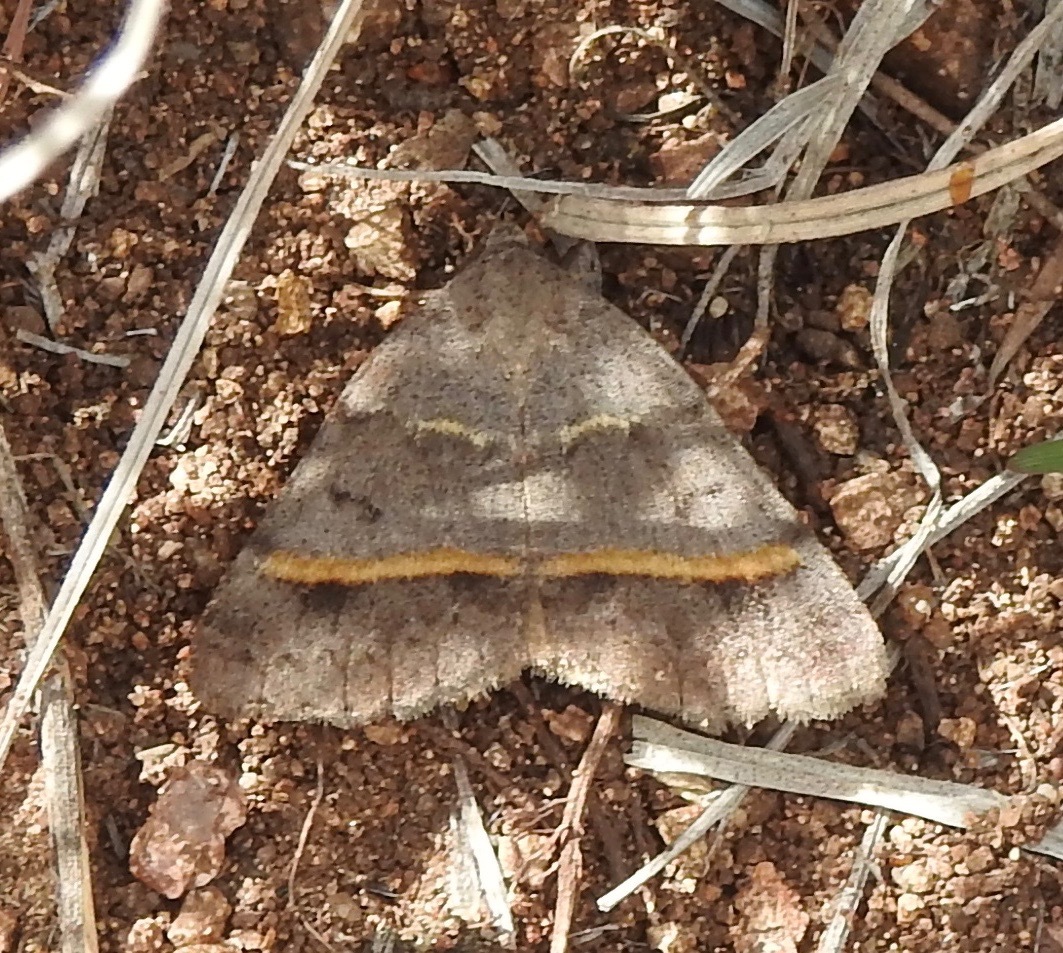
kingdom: Animalia
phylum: Arthropoda
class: Insecta
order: Lepidoptera
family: Erebidae
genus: Ptichodis
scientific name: Ptichodis bucetum
